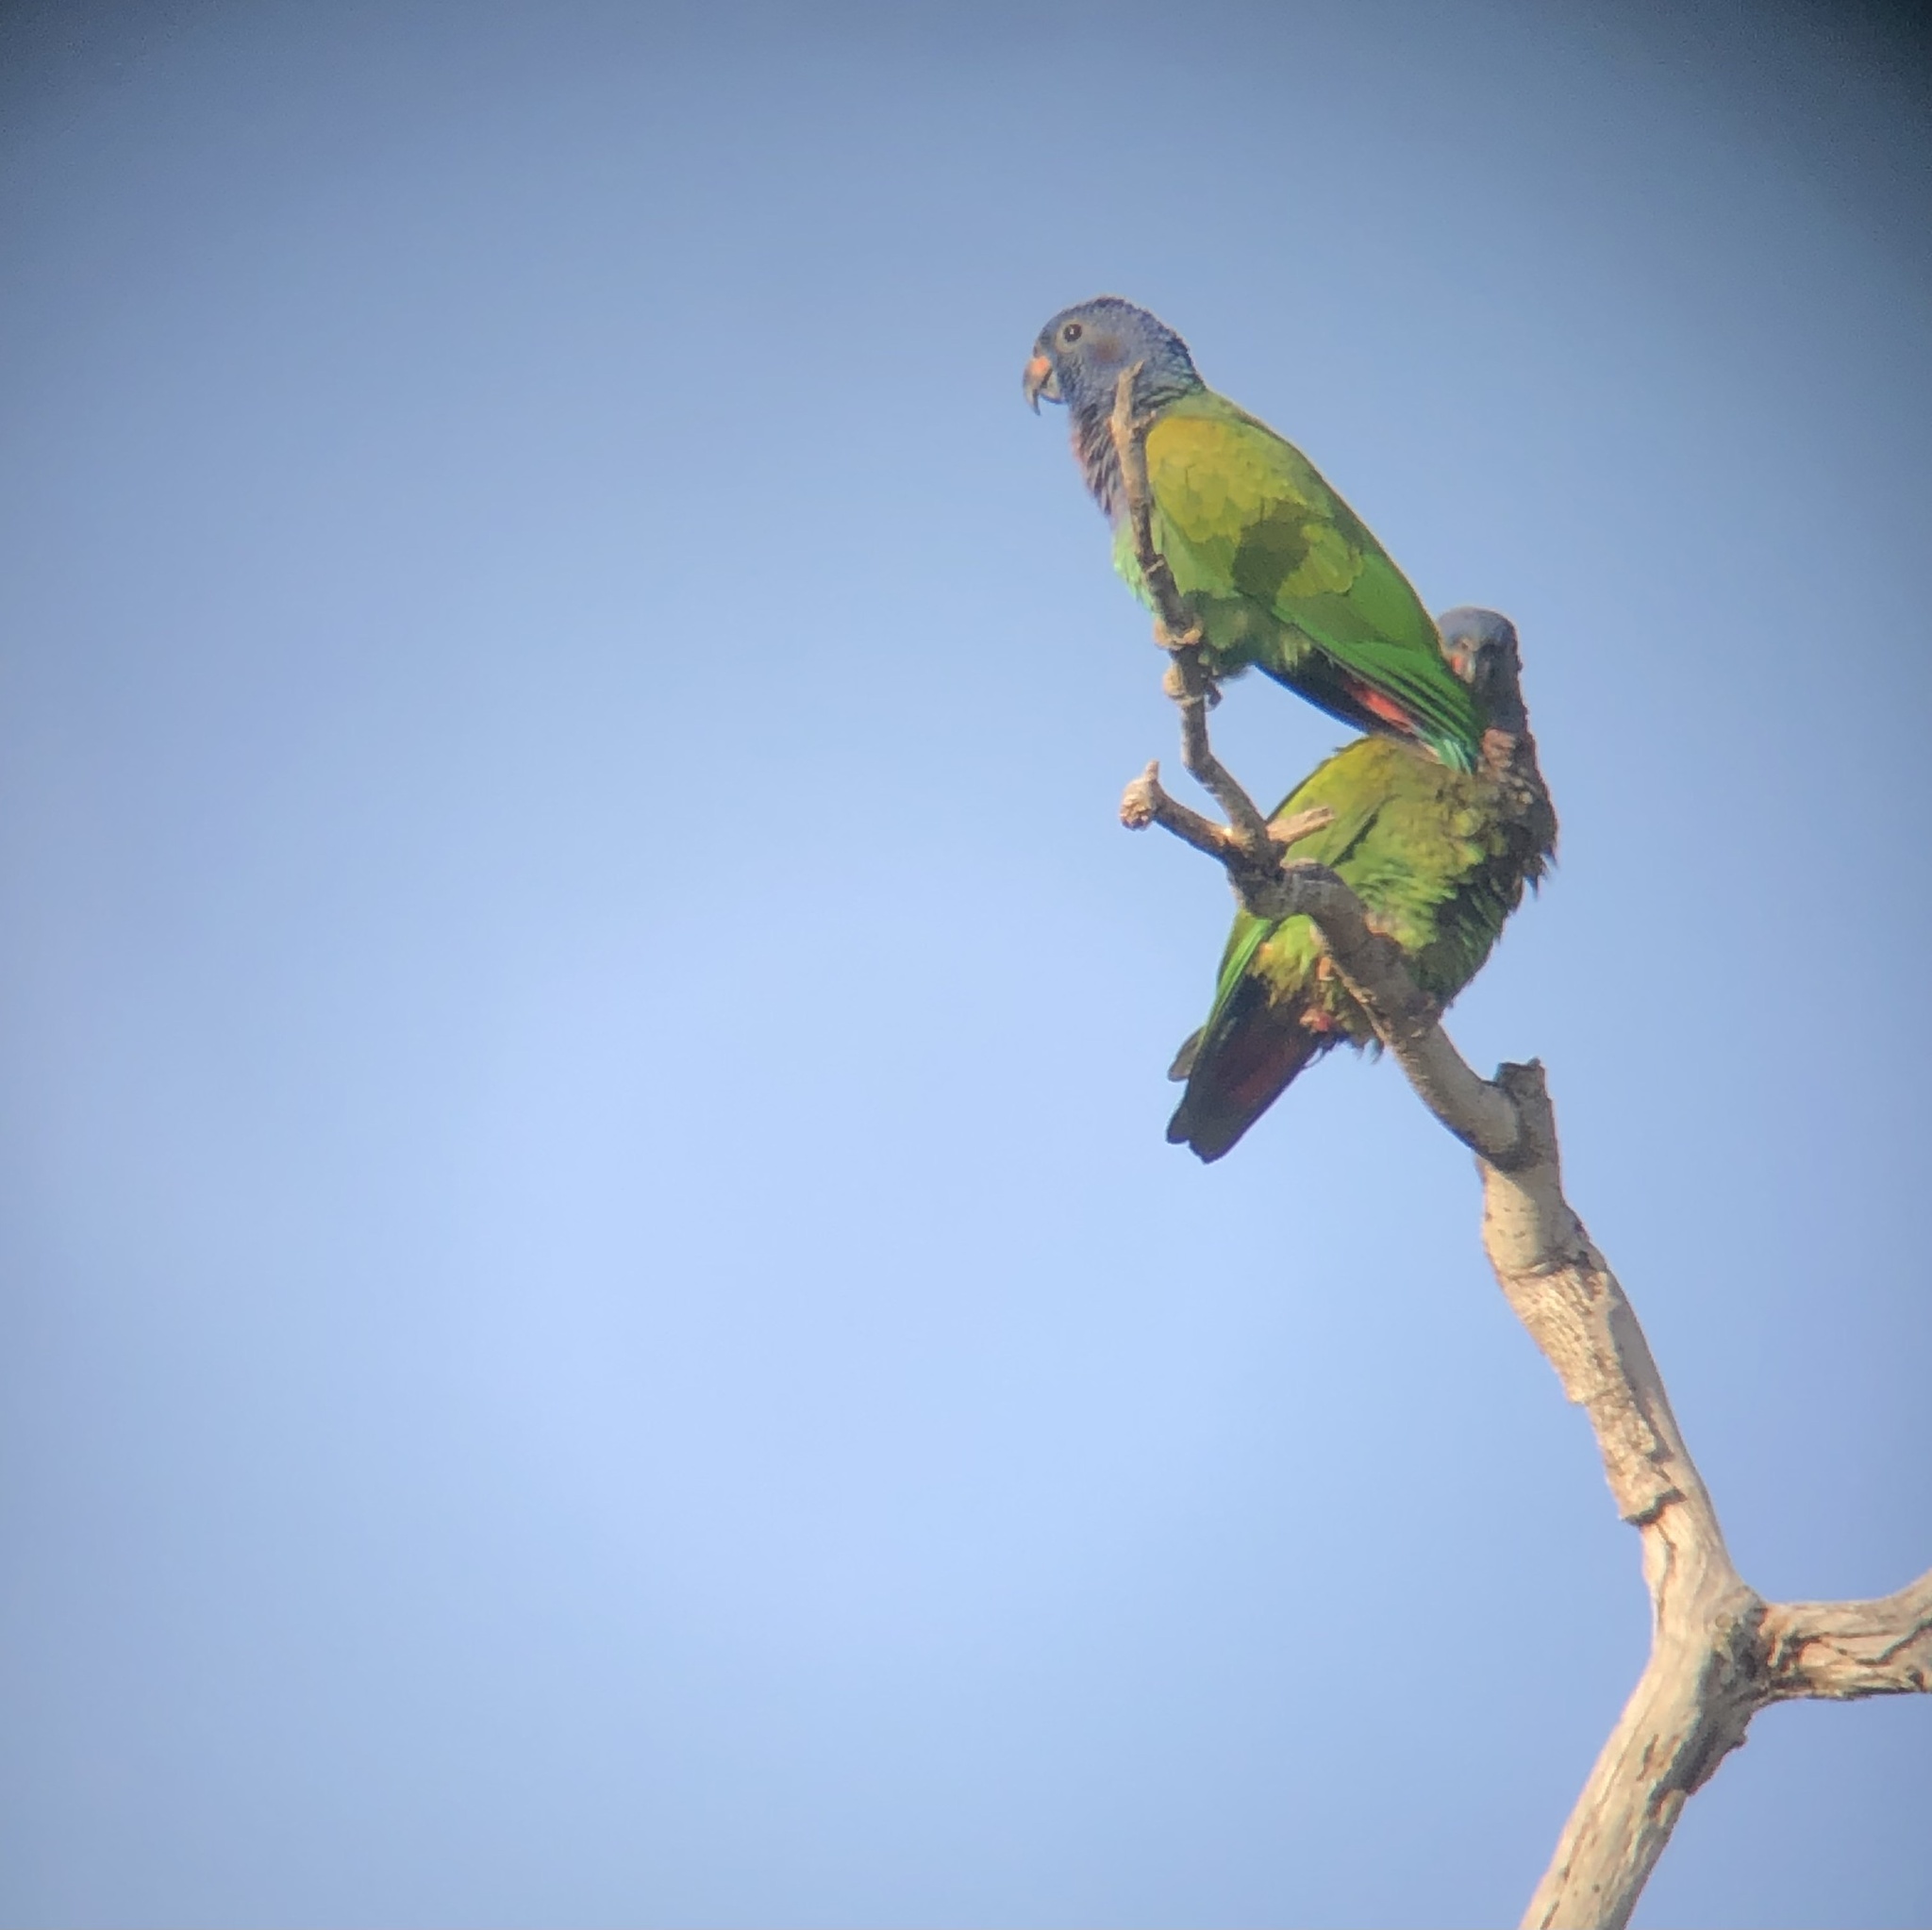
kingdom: Animalia
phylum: Chordata
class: Aves
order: Psittaciformes
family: Psittacidae
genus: Pionus
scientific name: Pionus menstruus
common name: Blue-headed parrot
